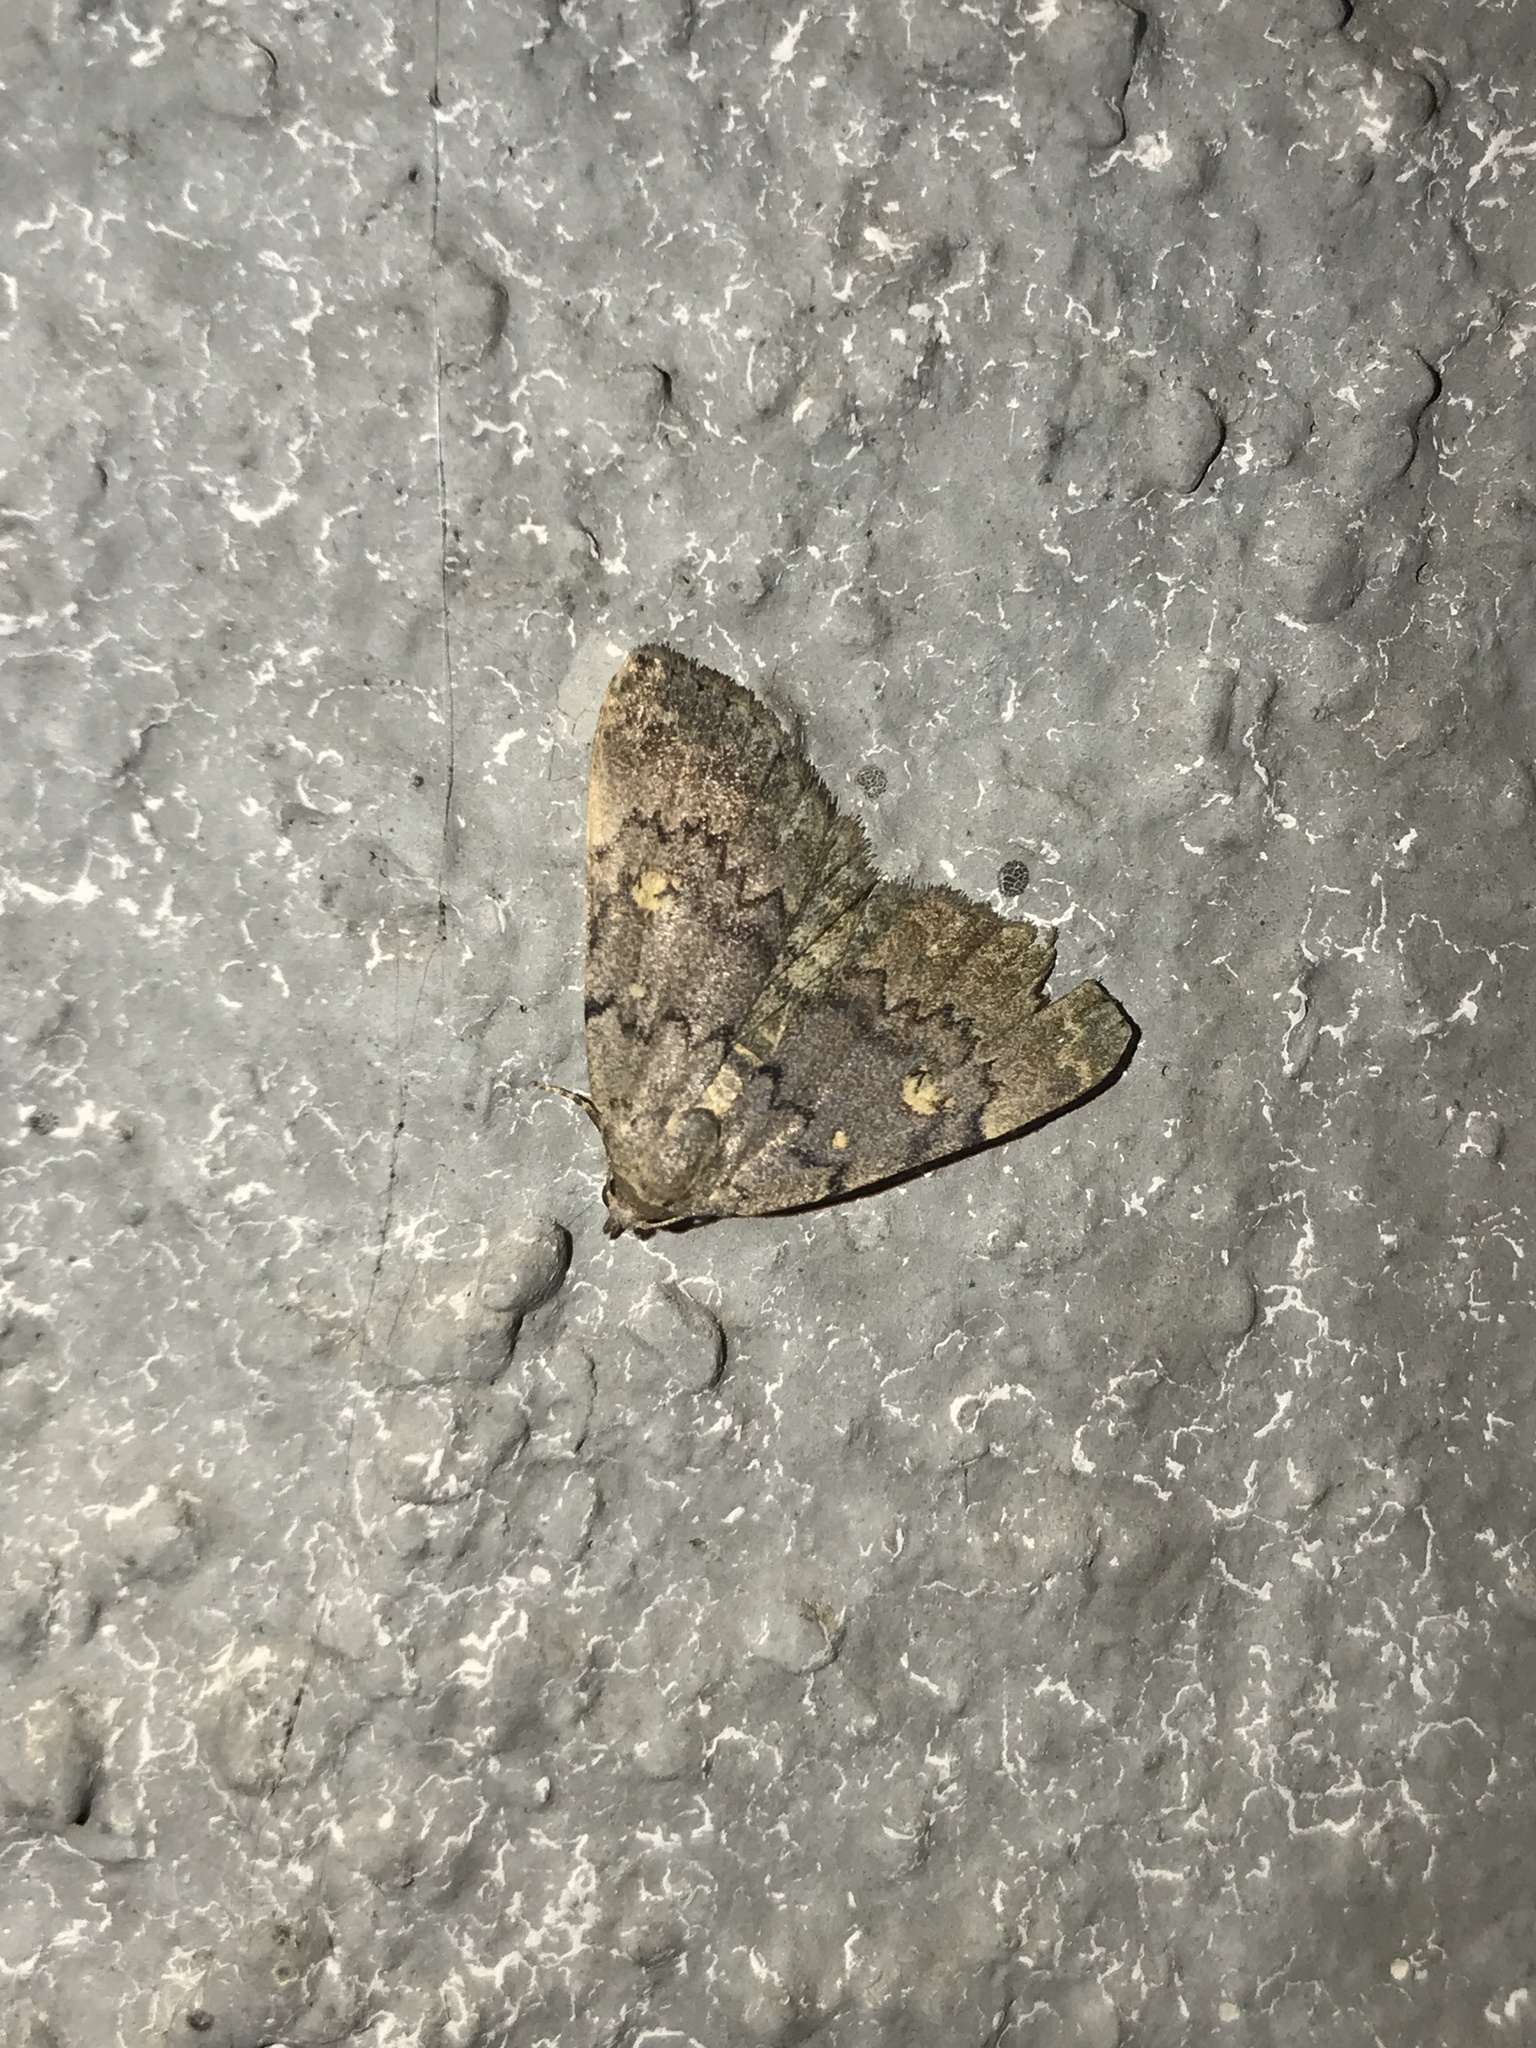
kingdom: Animalia
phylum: Arthropoda
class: Insecta
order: Lepidoptera
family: Erebidae
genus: Idia
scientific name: Idia aemula
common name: Common idia moth
